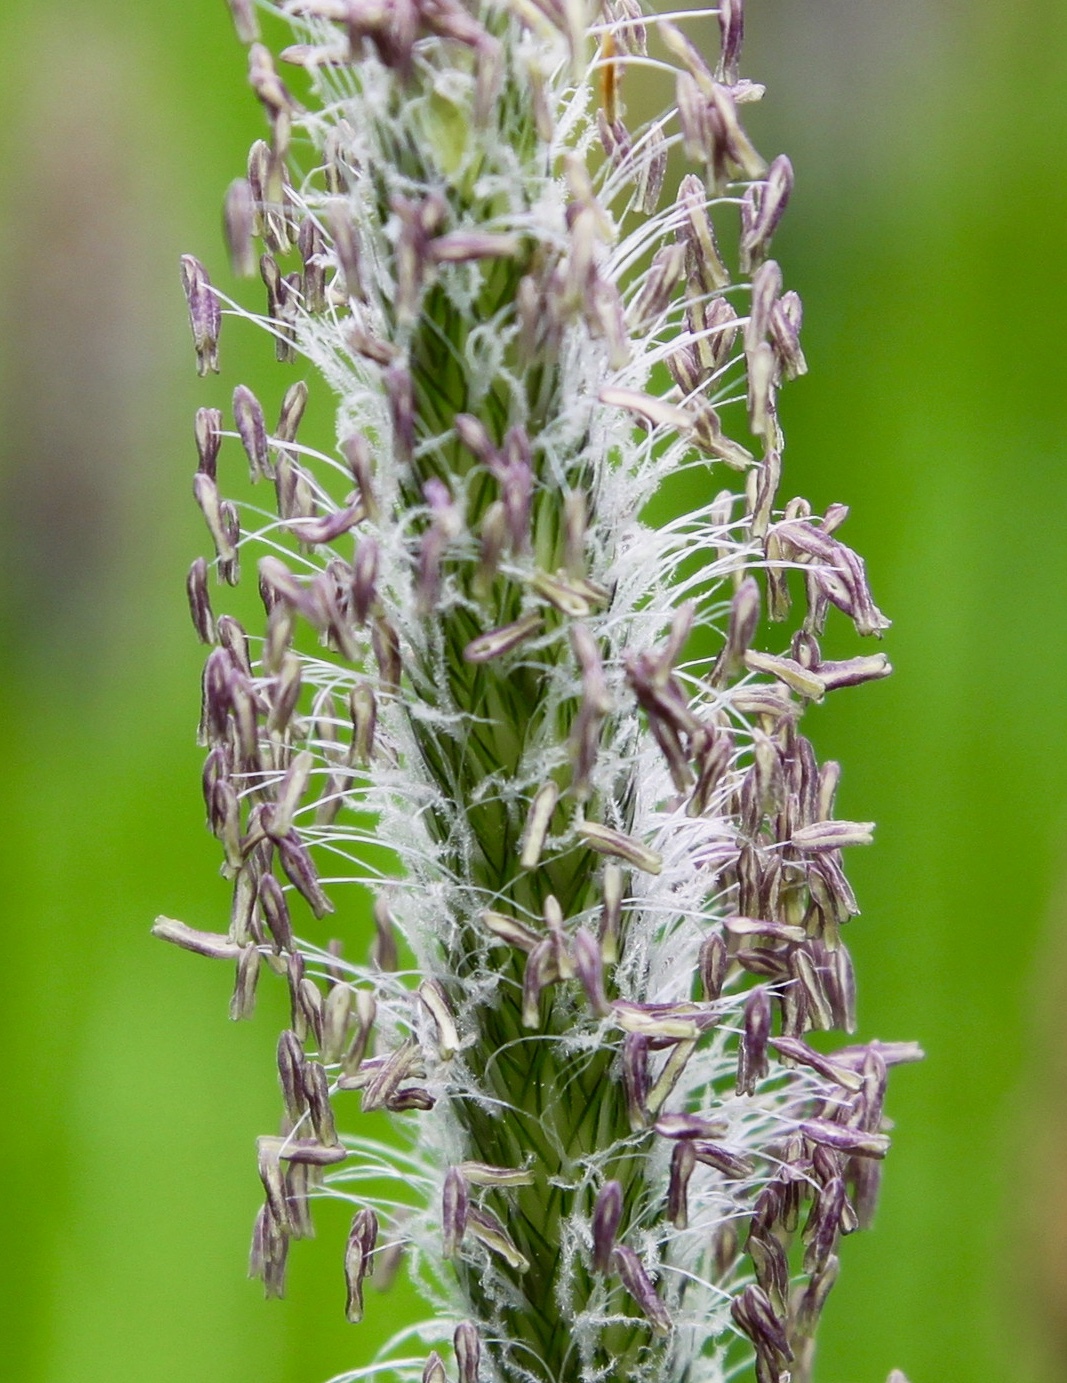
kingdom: Plantae
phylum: Tracheophyta
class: Liliopsida
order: Poales
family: Poaceae
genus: Alopecurus
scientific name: Alopecurus pratensis
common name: Meadow foxtail
